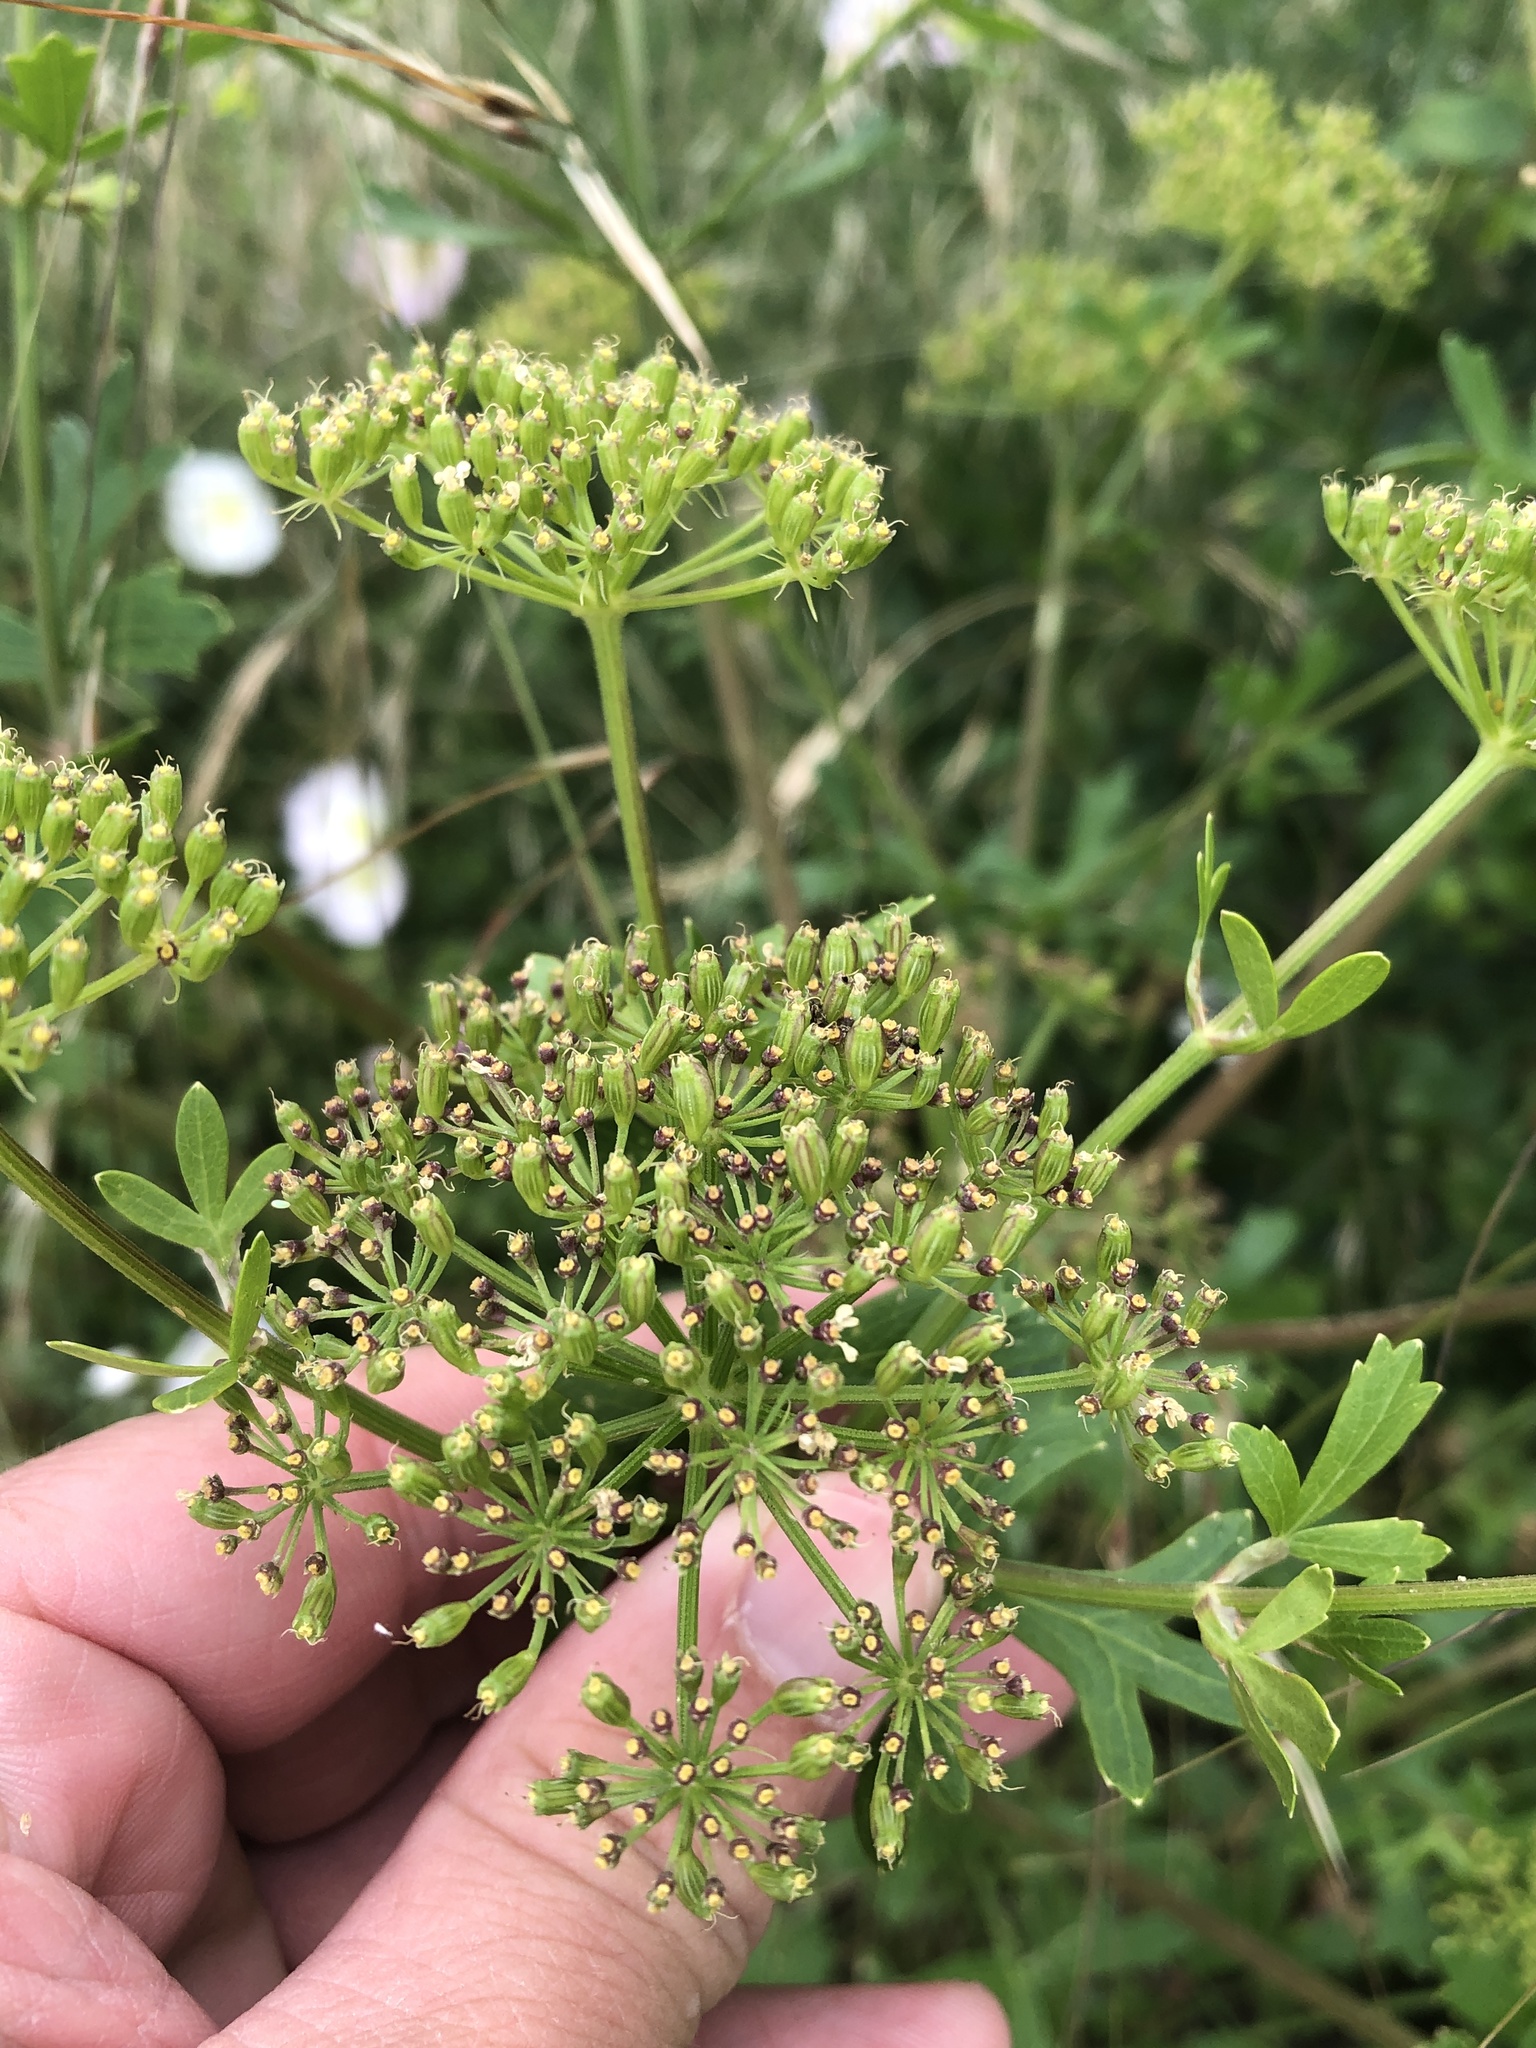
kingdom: Plantae
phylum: Tracheophyta
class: Magnoliopsida
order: Apiales
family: Apiaceae
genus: Polytaenia
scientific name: Polytaenia texana
